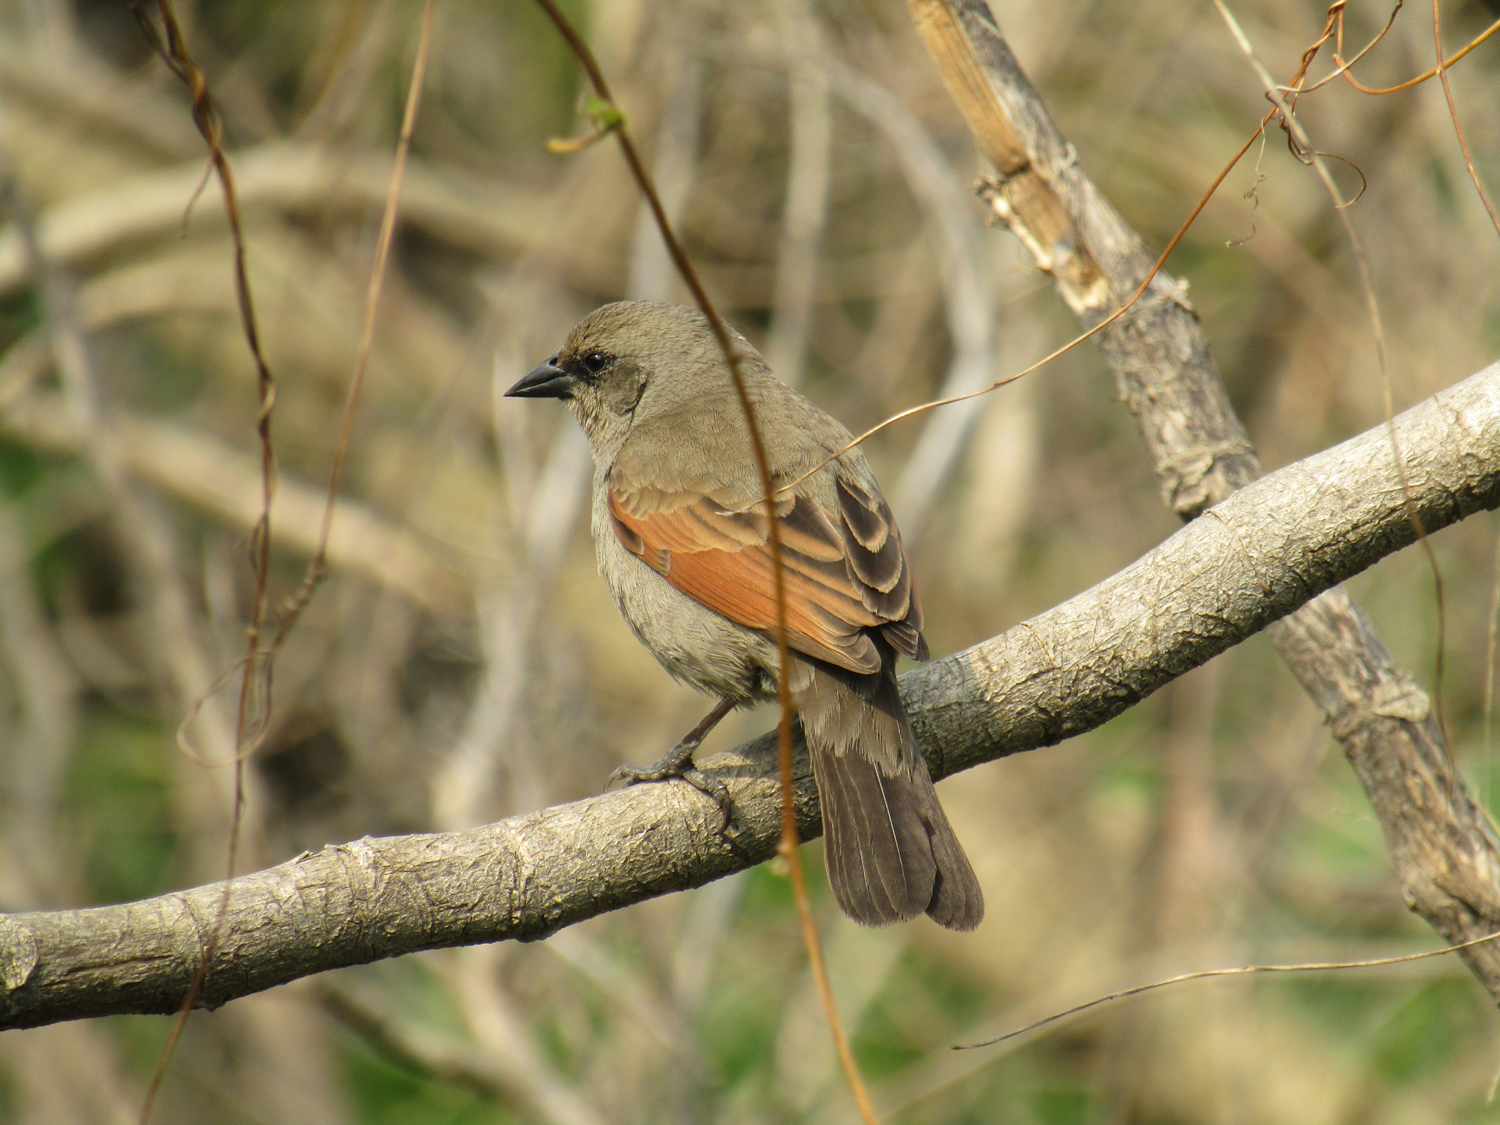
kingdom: Animalia
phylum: Chordata
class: Aves
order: Passeriformes
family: Icteridae
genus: Agelaioides
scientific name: Agelaioides badius
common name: Baywing
